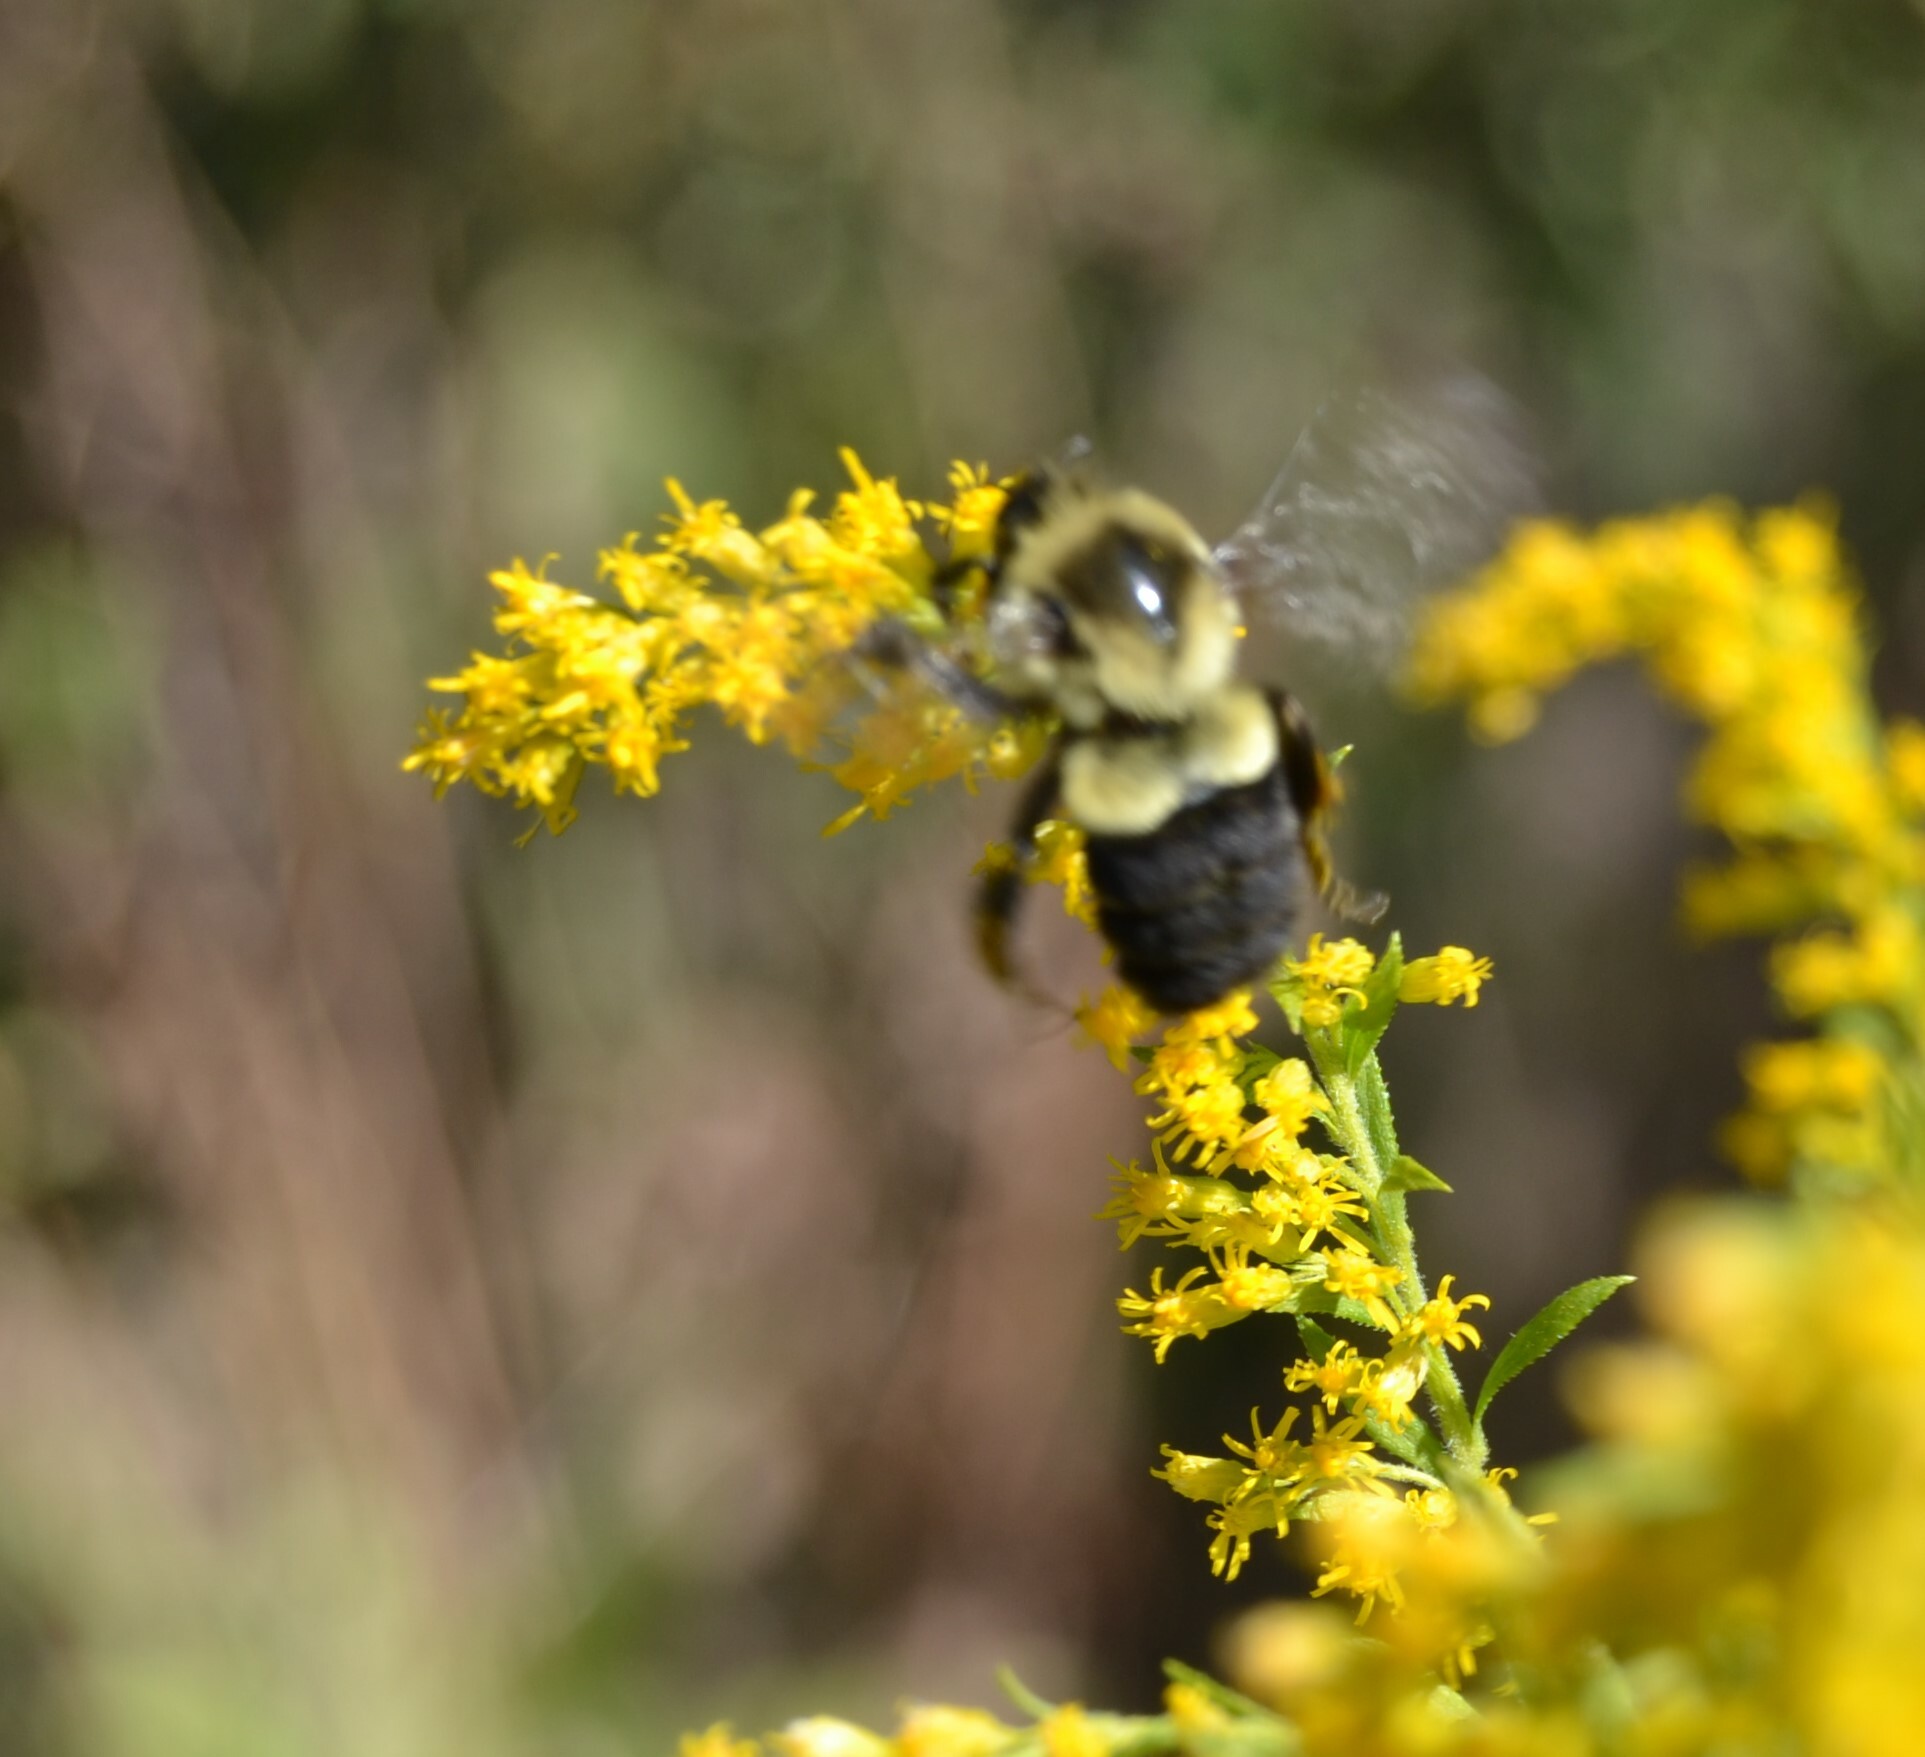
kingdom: Animalia
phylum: Arthropoda
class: Insecta
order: Hymenoptera
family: Apidae
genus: Bombus
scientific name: Bombus impatiens
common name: Common eastern bumble bee
